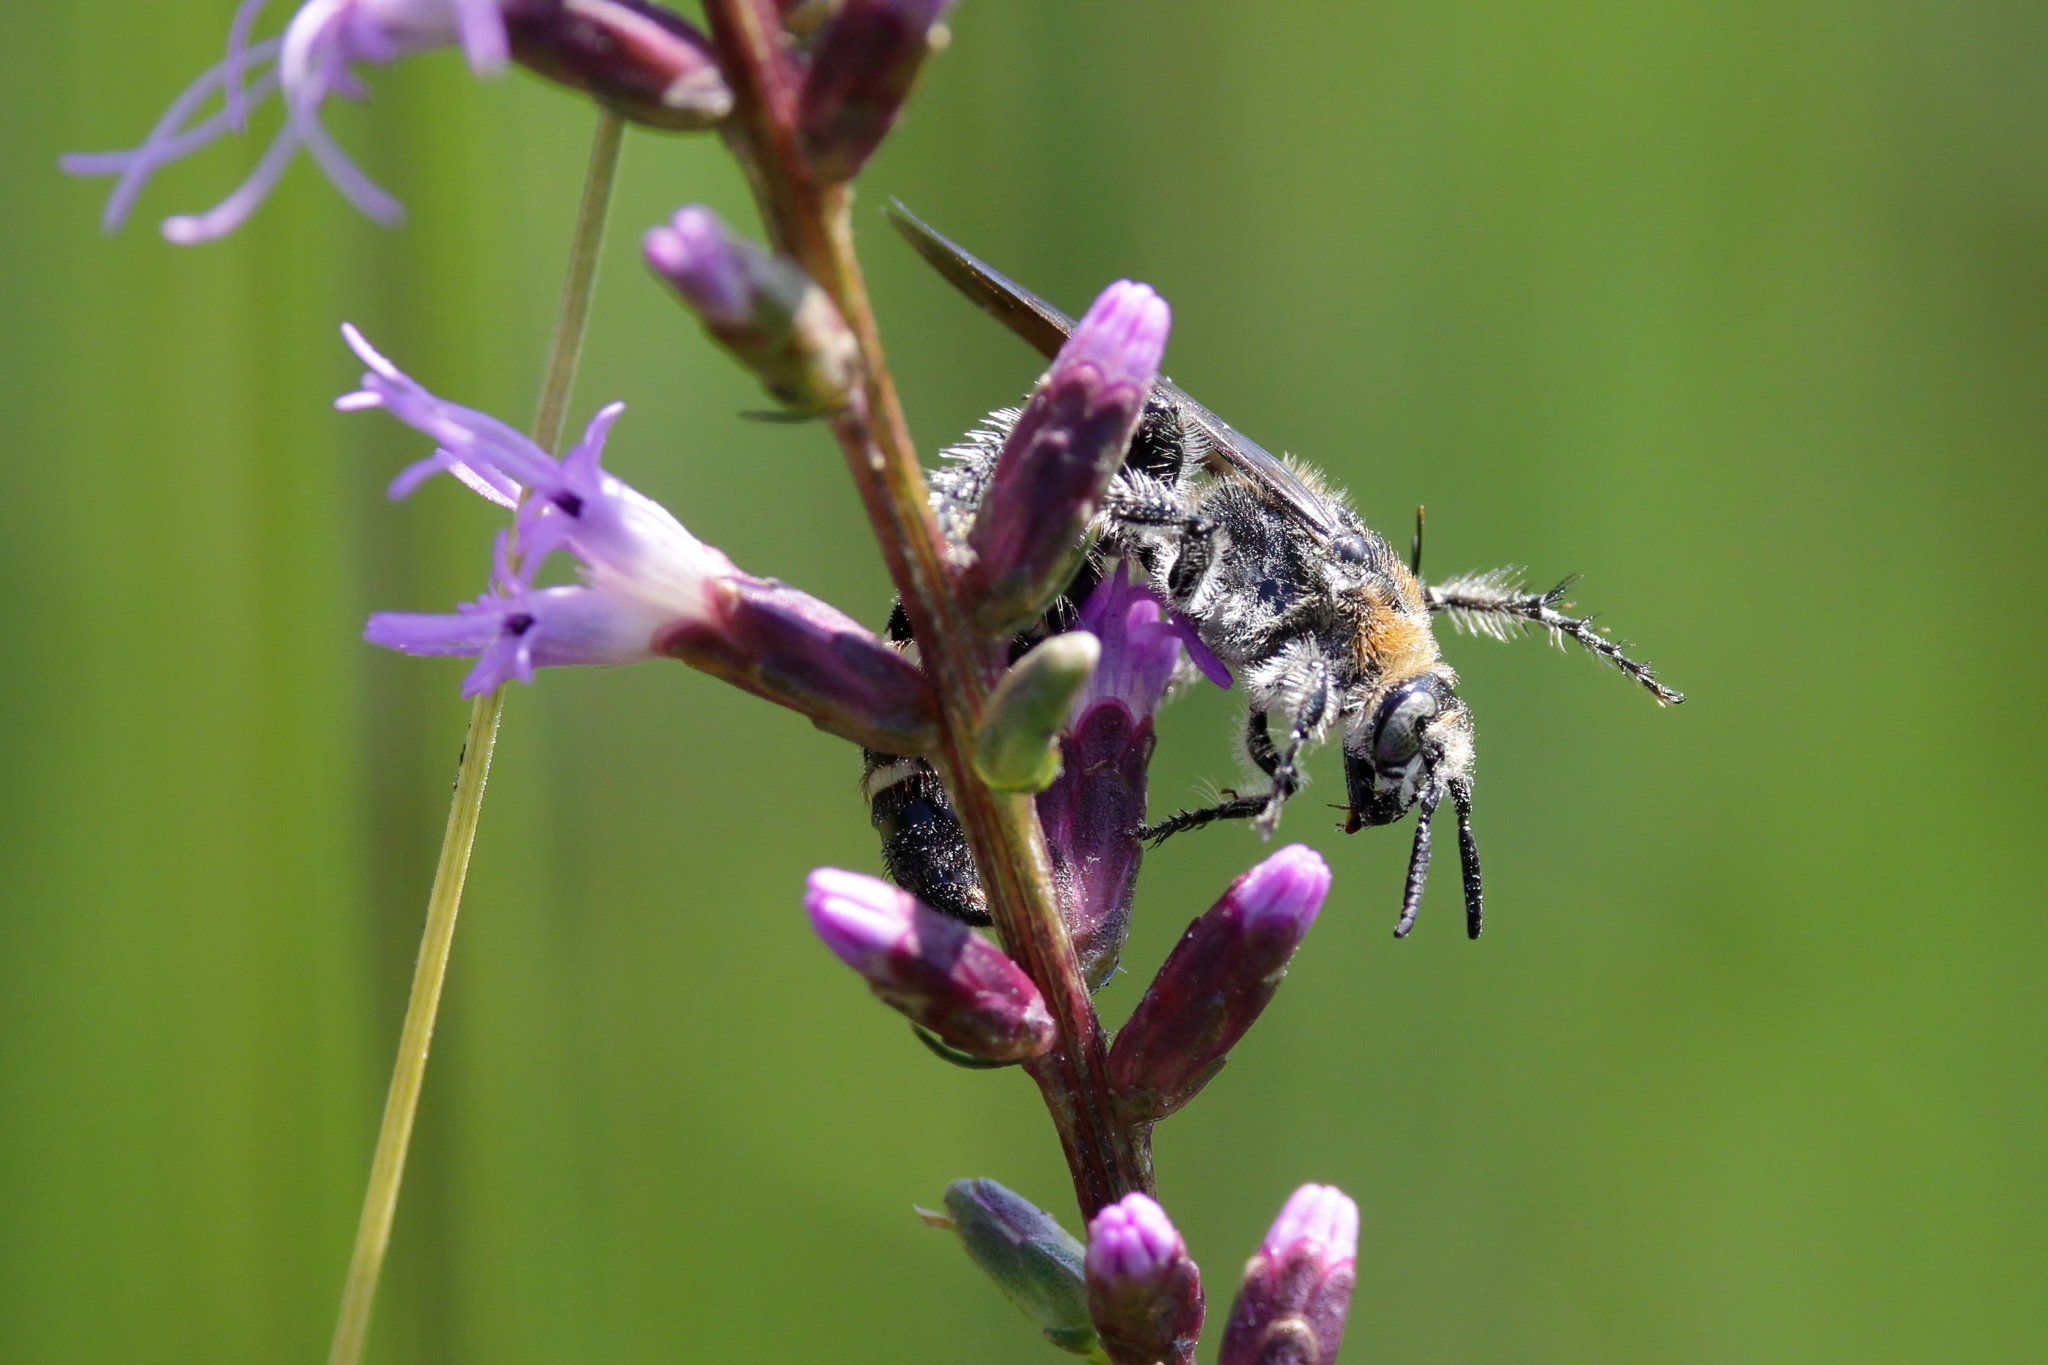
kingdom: Animalia
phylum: Arthropoda
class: Insecta
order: Hymenoptera
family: Scoliidae
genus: Dielis
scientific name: Dielis
